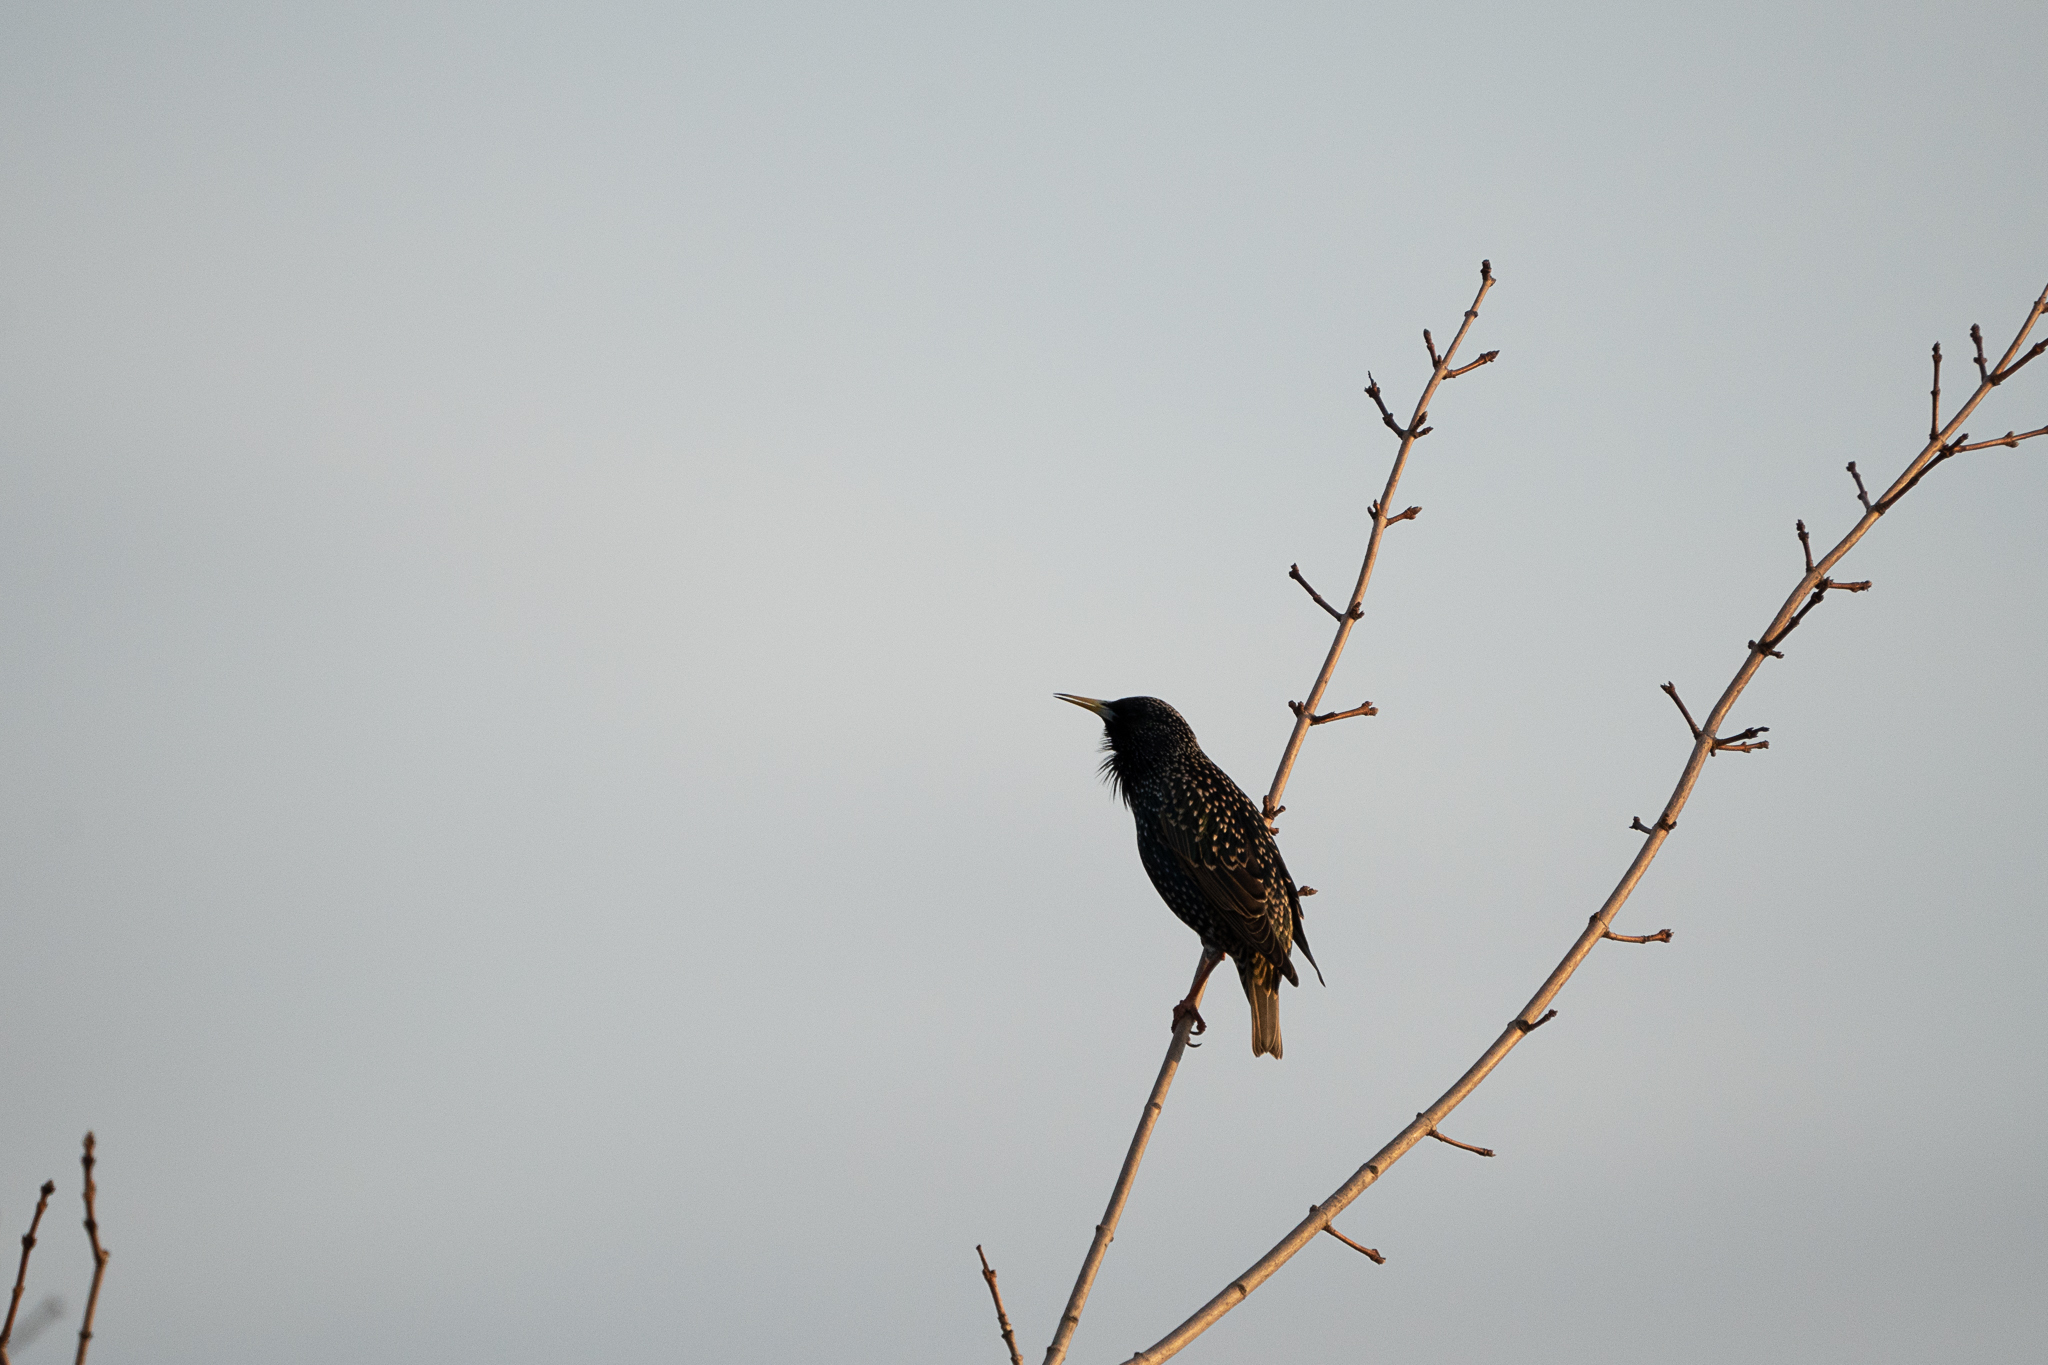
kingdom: Animalia
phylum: Chordata
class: Aves
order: Passeriformes
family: Sturnidae
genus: Sturnus
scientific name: Sturnus vulgaris
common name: Common starling
